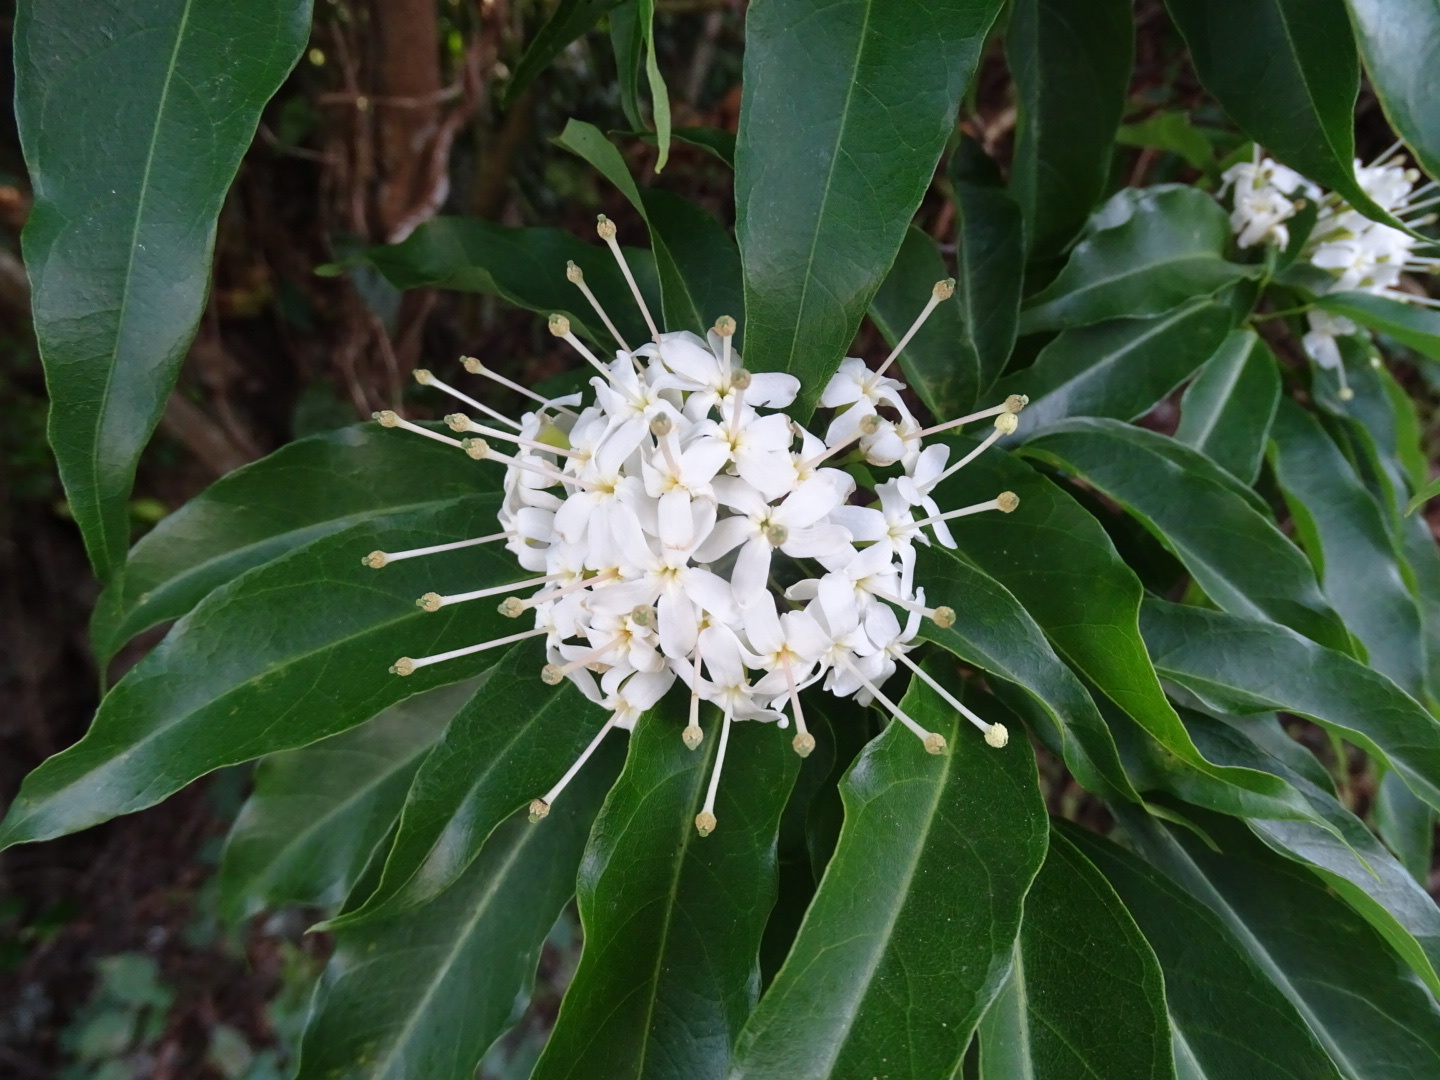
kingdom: Plantae
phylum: Tracheophyta
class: Magnoliopsida
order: Malvales
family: Malvaceae
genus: Reevesia
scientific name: Reevesia thyrsoidea
